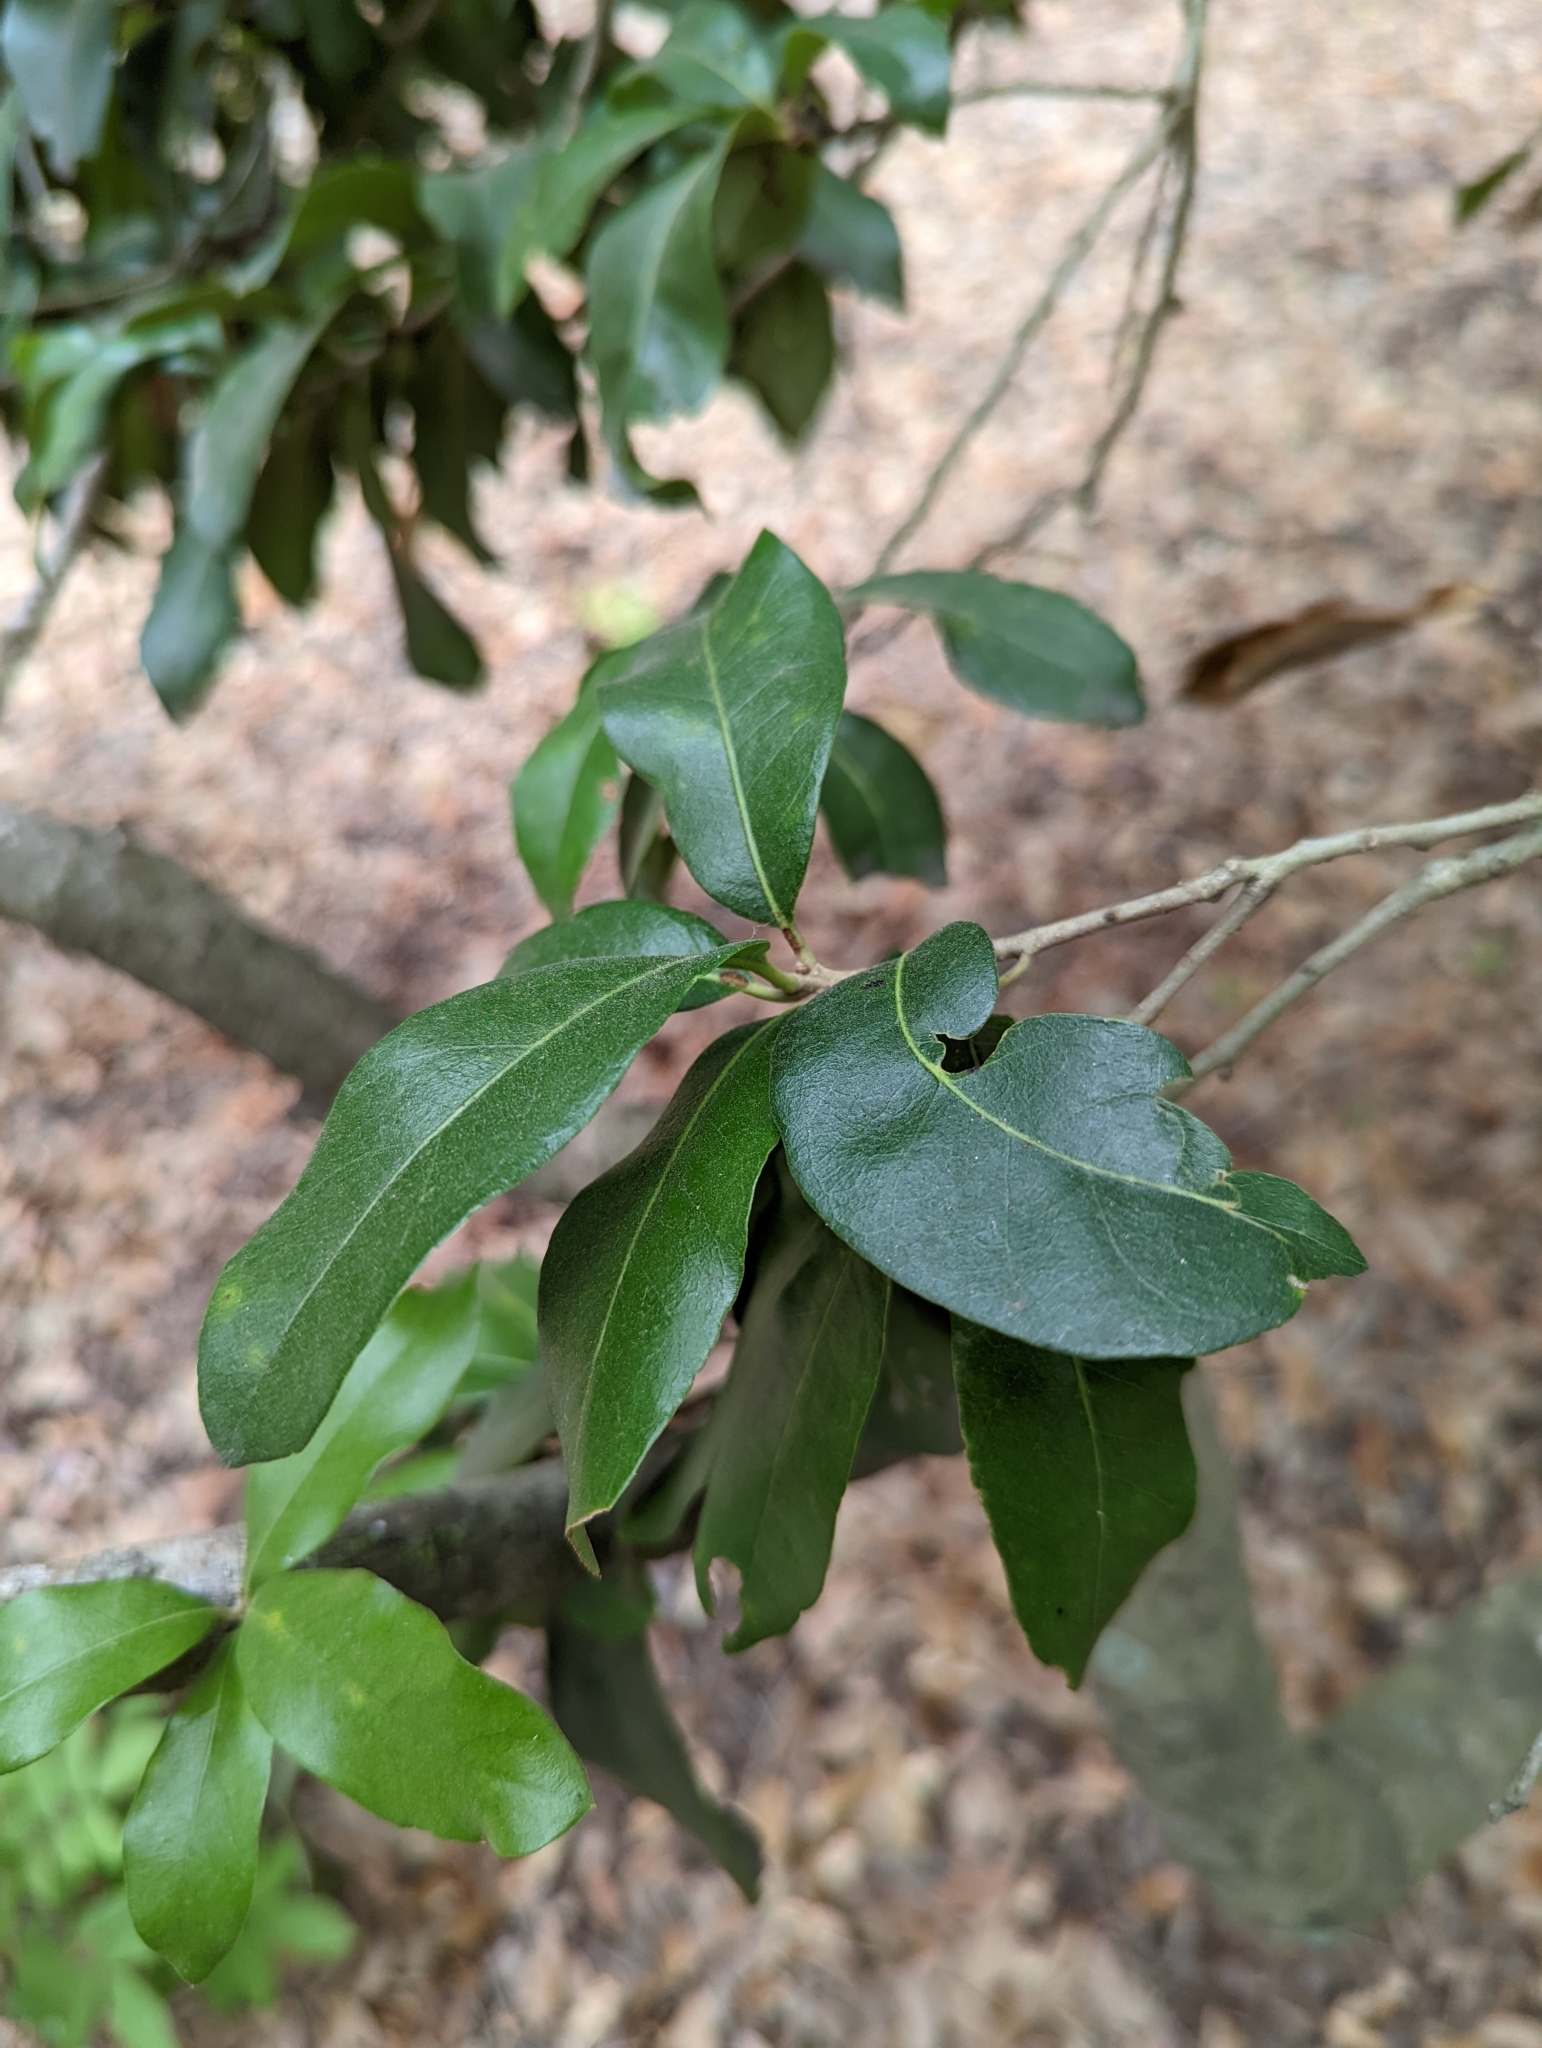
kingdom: Plantae
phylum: Tracheophyta
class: Magnoliopsida
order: Fagales
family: Fagaceae
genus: Quercus
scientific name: Quercus virginiana
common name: Southern live oak
